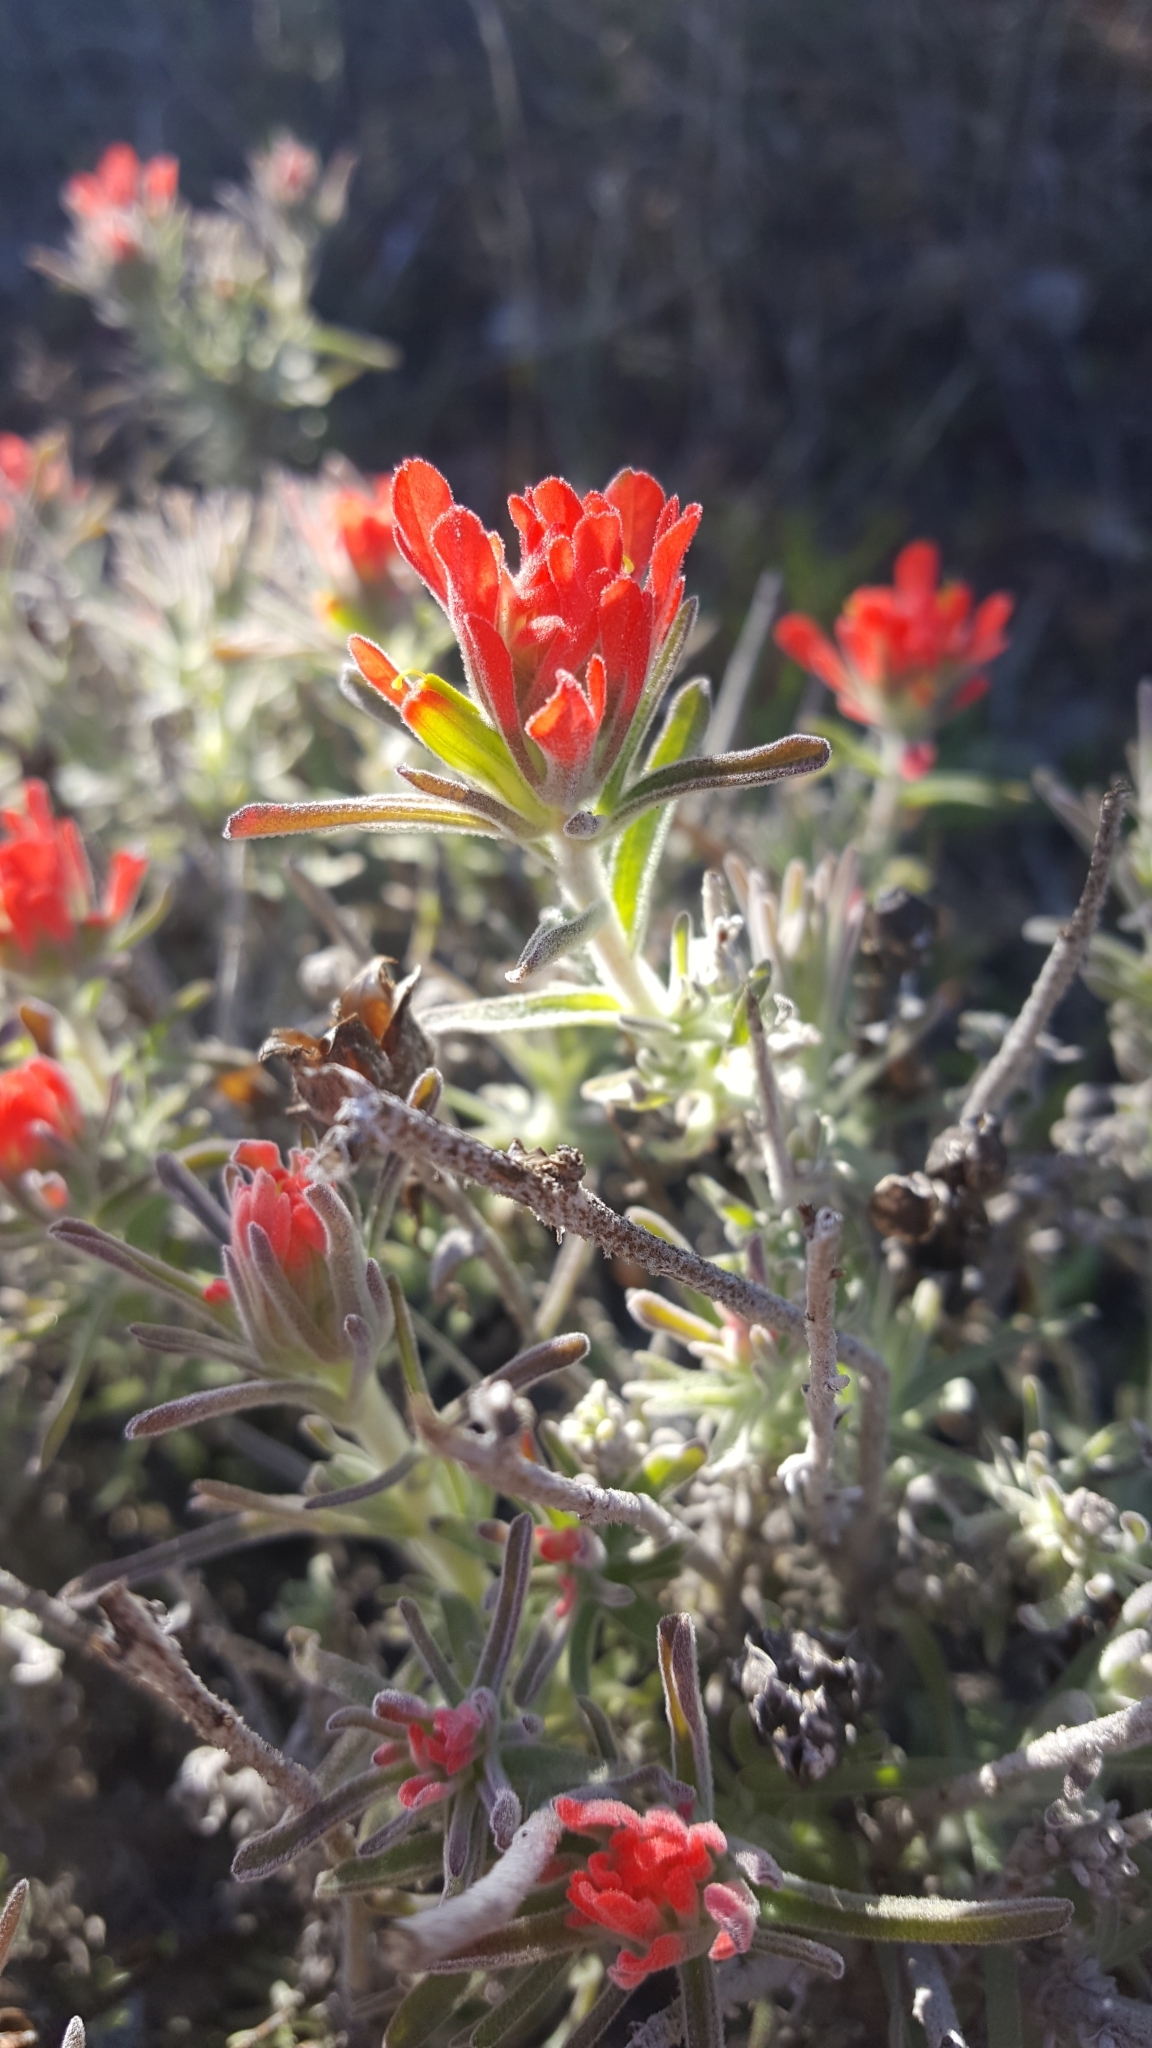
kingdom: Plantae
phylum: Tracheophyta
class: Magnoliopsida
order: Lamiales
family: Orobanchaceae
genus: Castilleja
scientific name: Castilleja foliolosa
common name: Woolly indian paintbrush
